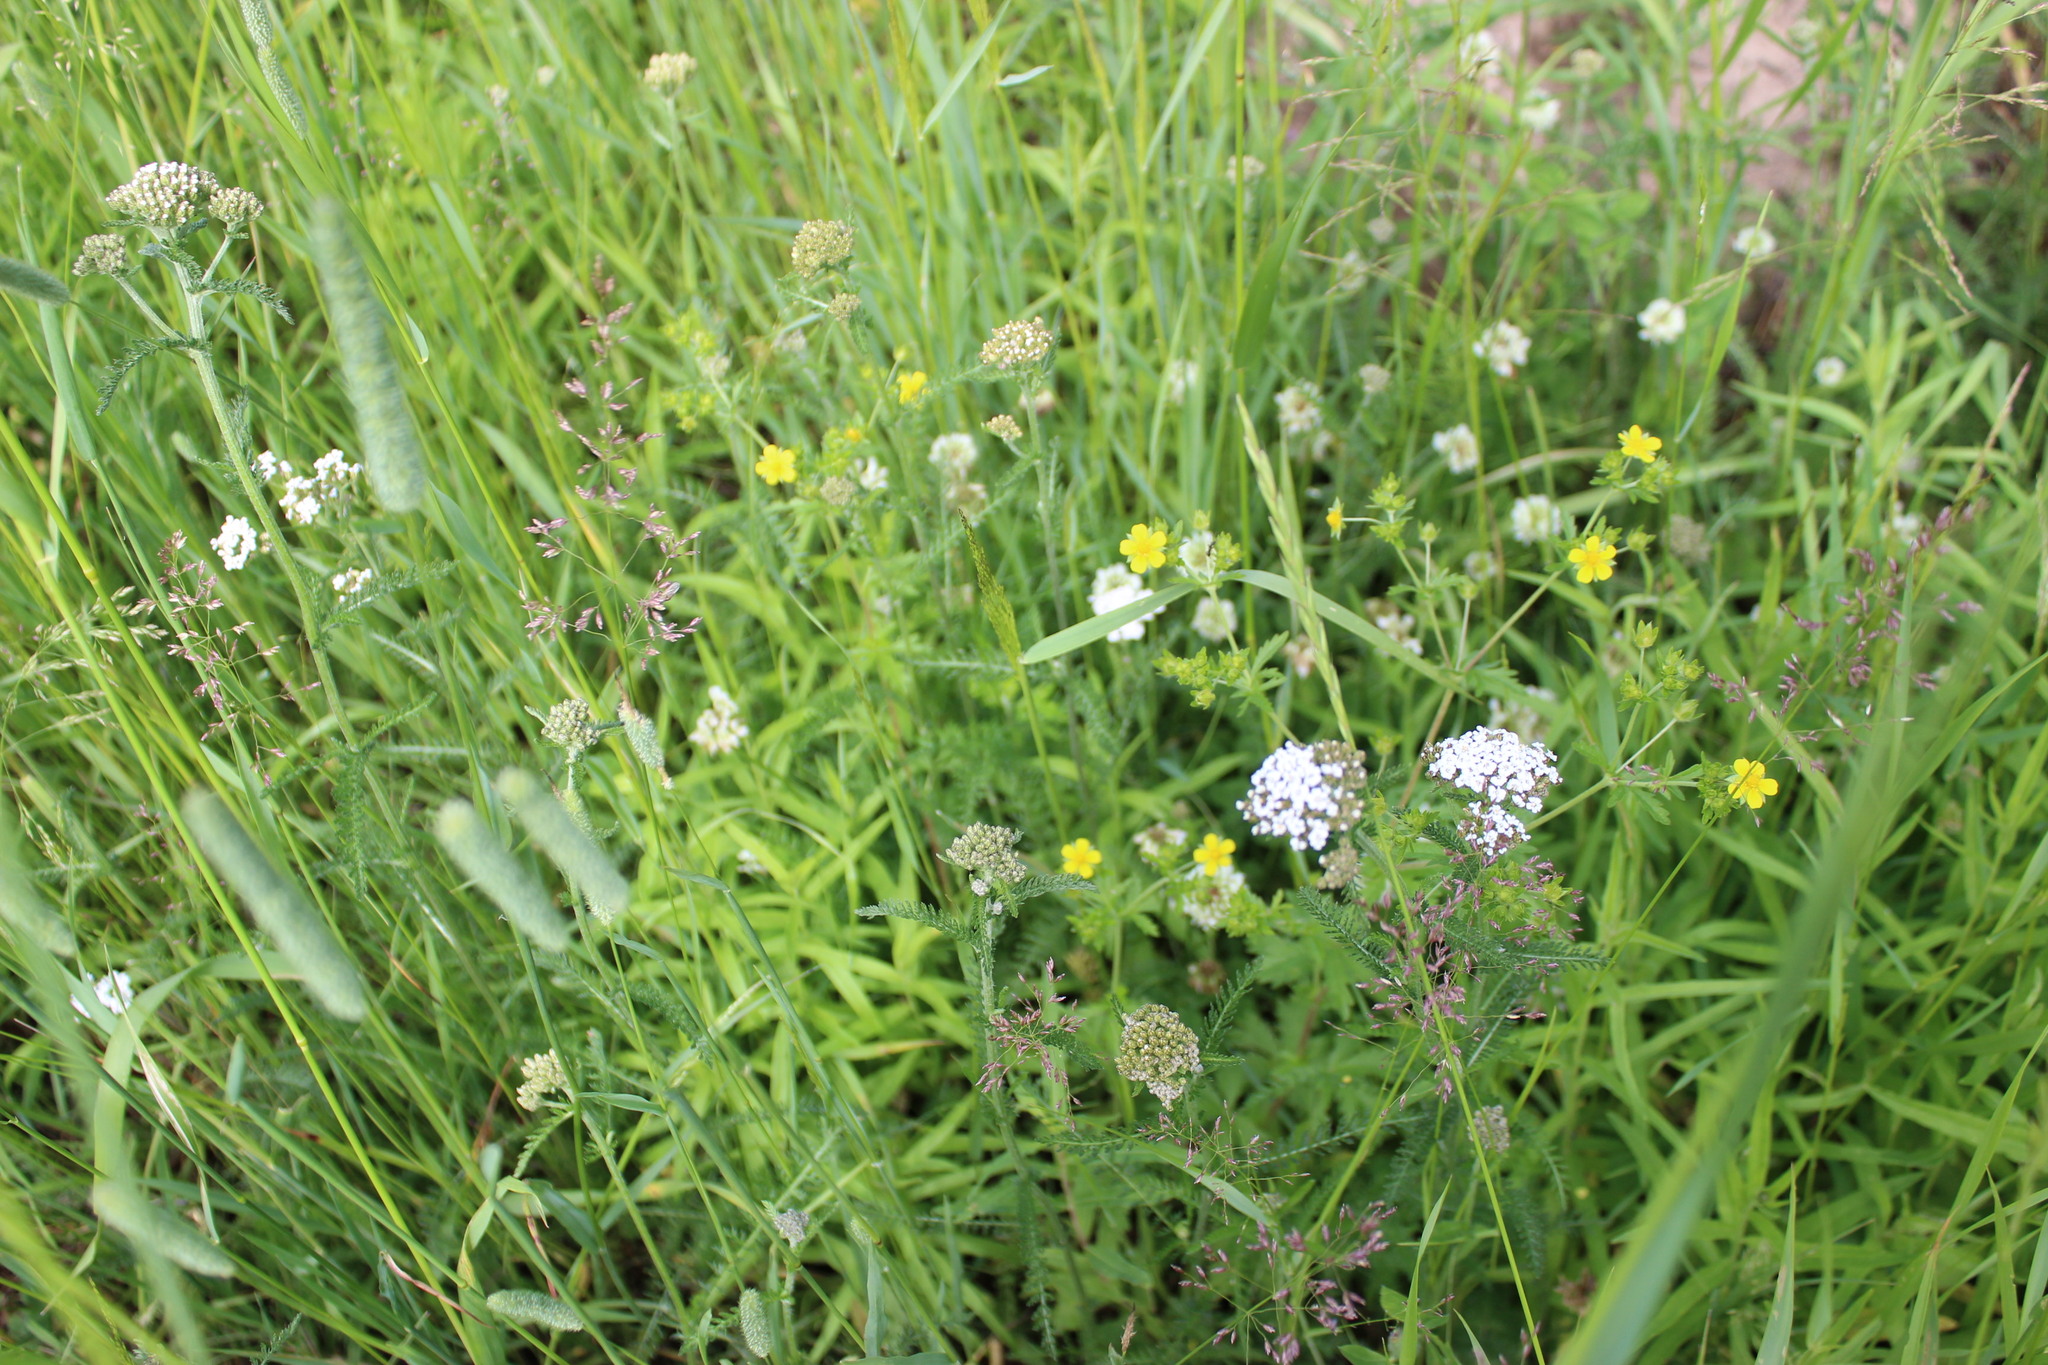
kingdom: Plantae
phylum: Tracheophyta
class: Magnoliopsida
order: Rosales
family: Rosaceae
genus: Potentilla
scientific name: Potentilla intermedia
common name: Downy cinquefoil
